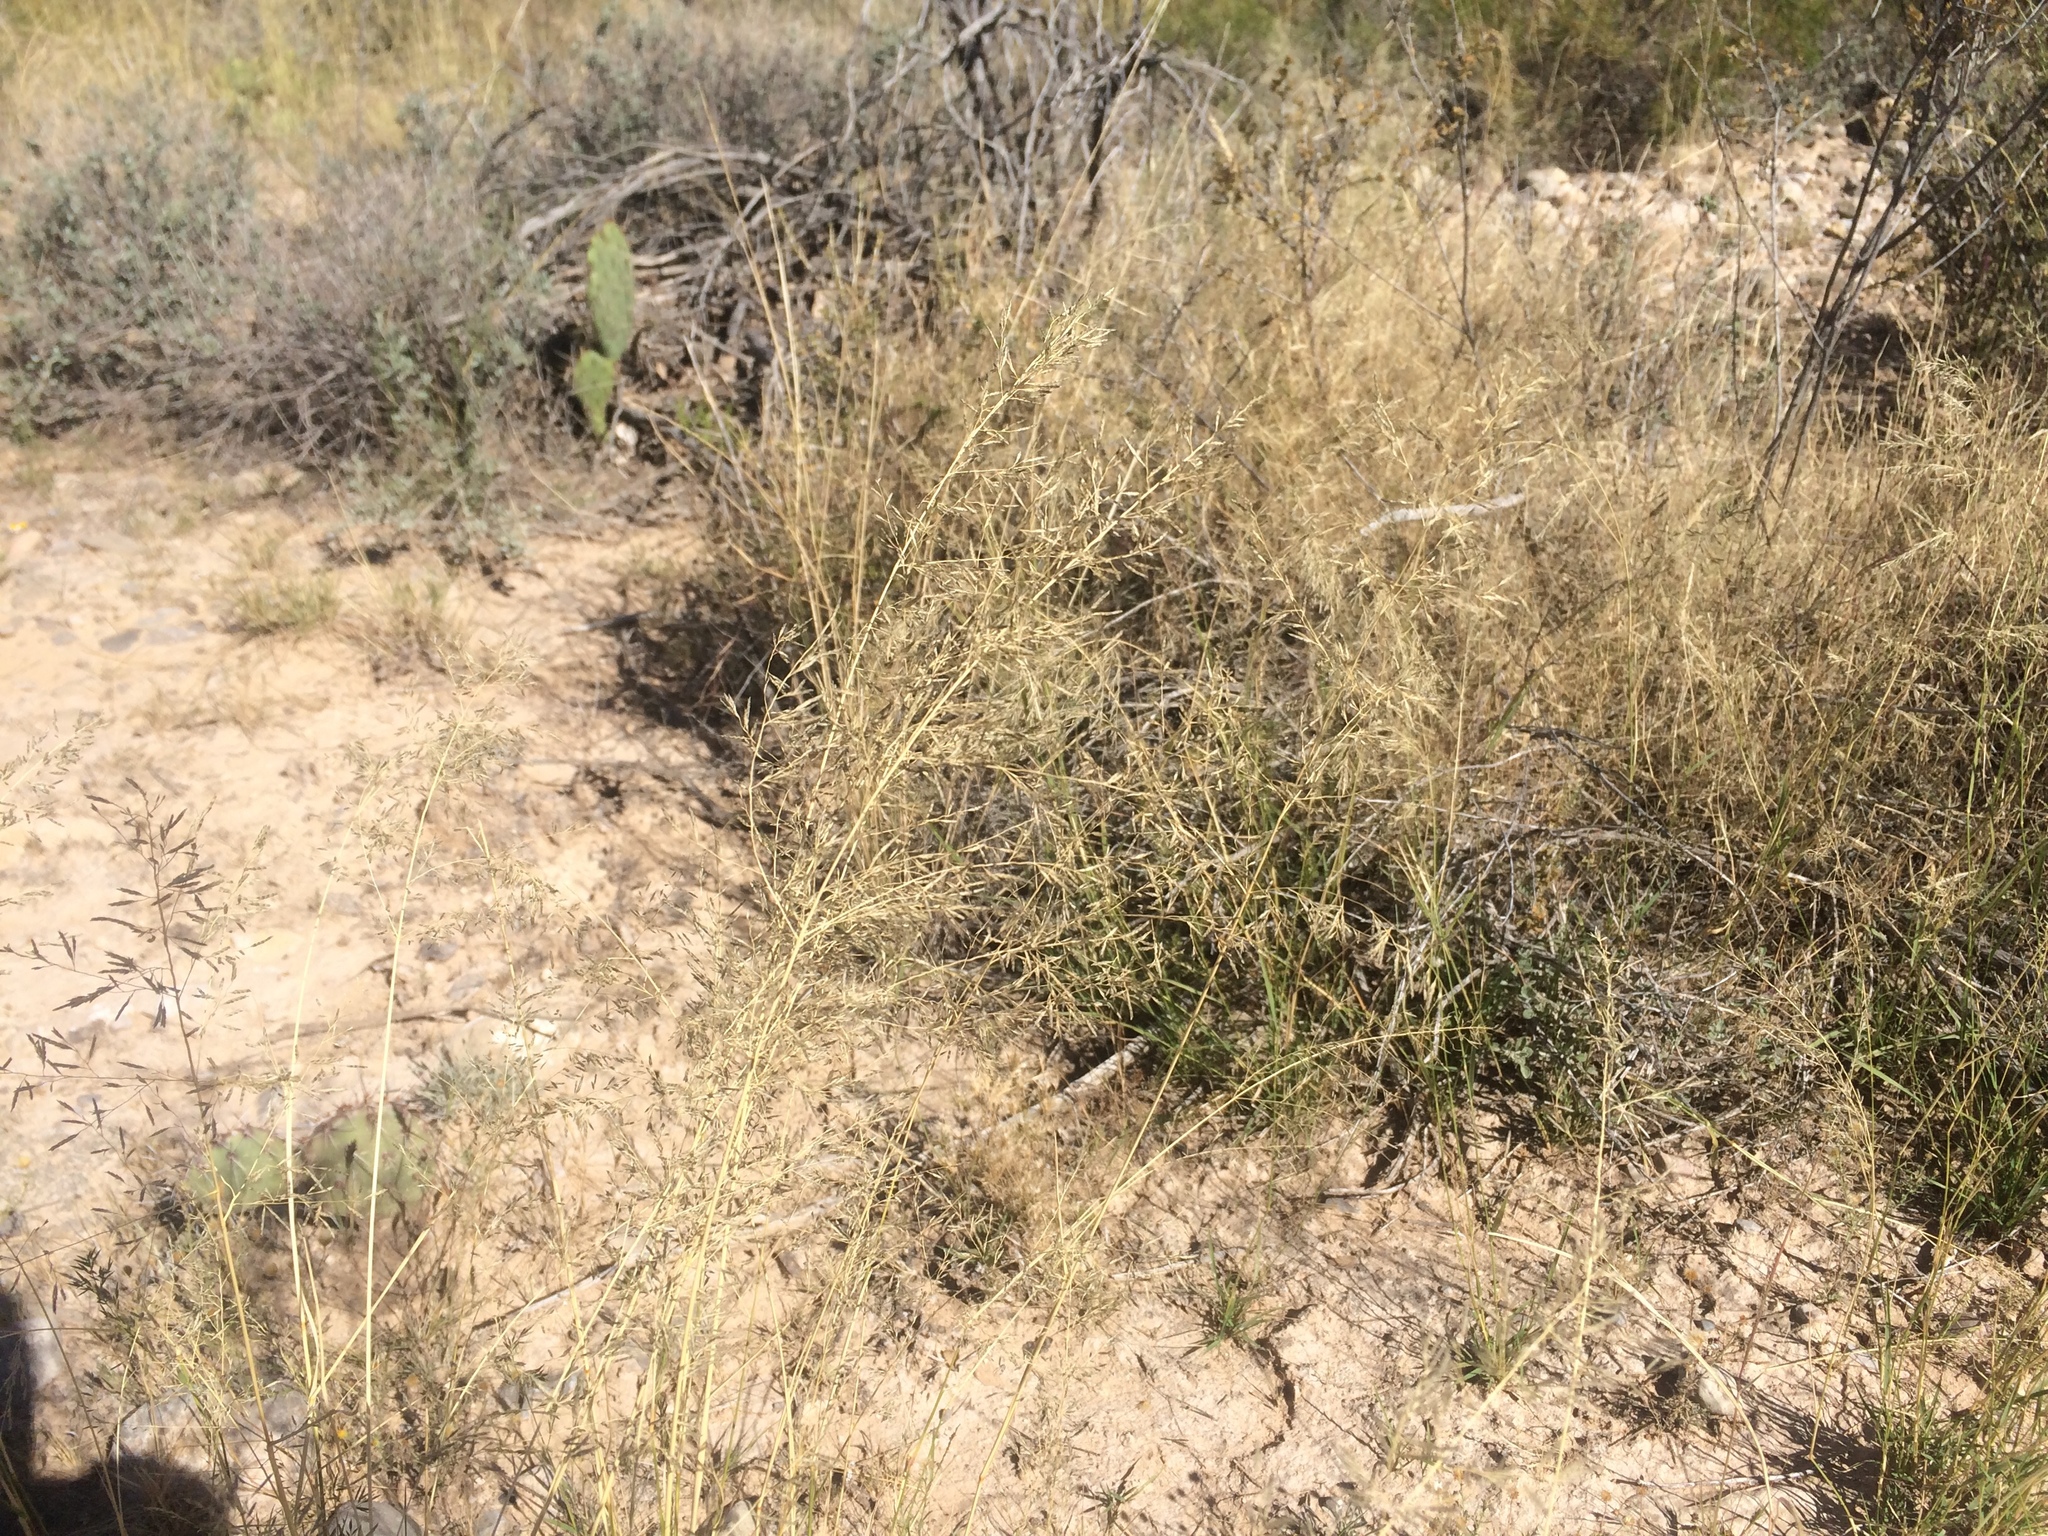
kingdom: Plantae
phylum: Tracheophyta
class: Liliopsida
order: Poales
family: Poaceae
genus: Eragrostis
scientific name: Eragrostis lehmanniana
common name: Lehmann lovegrass
